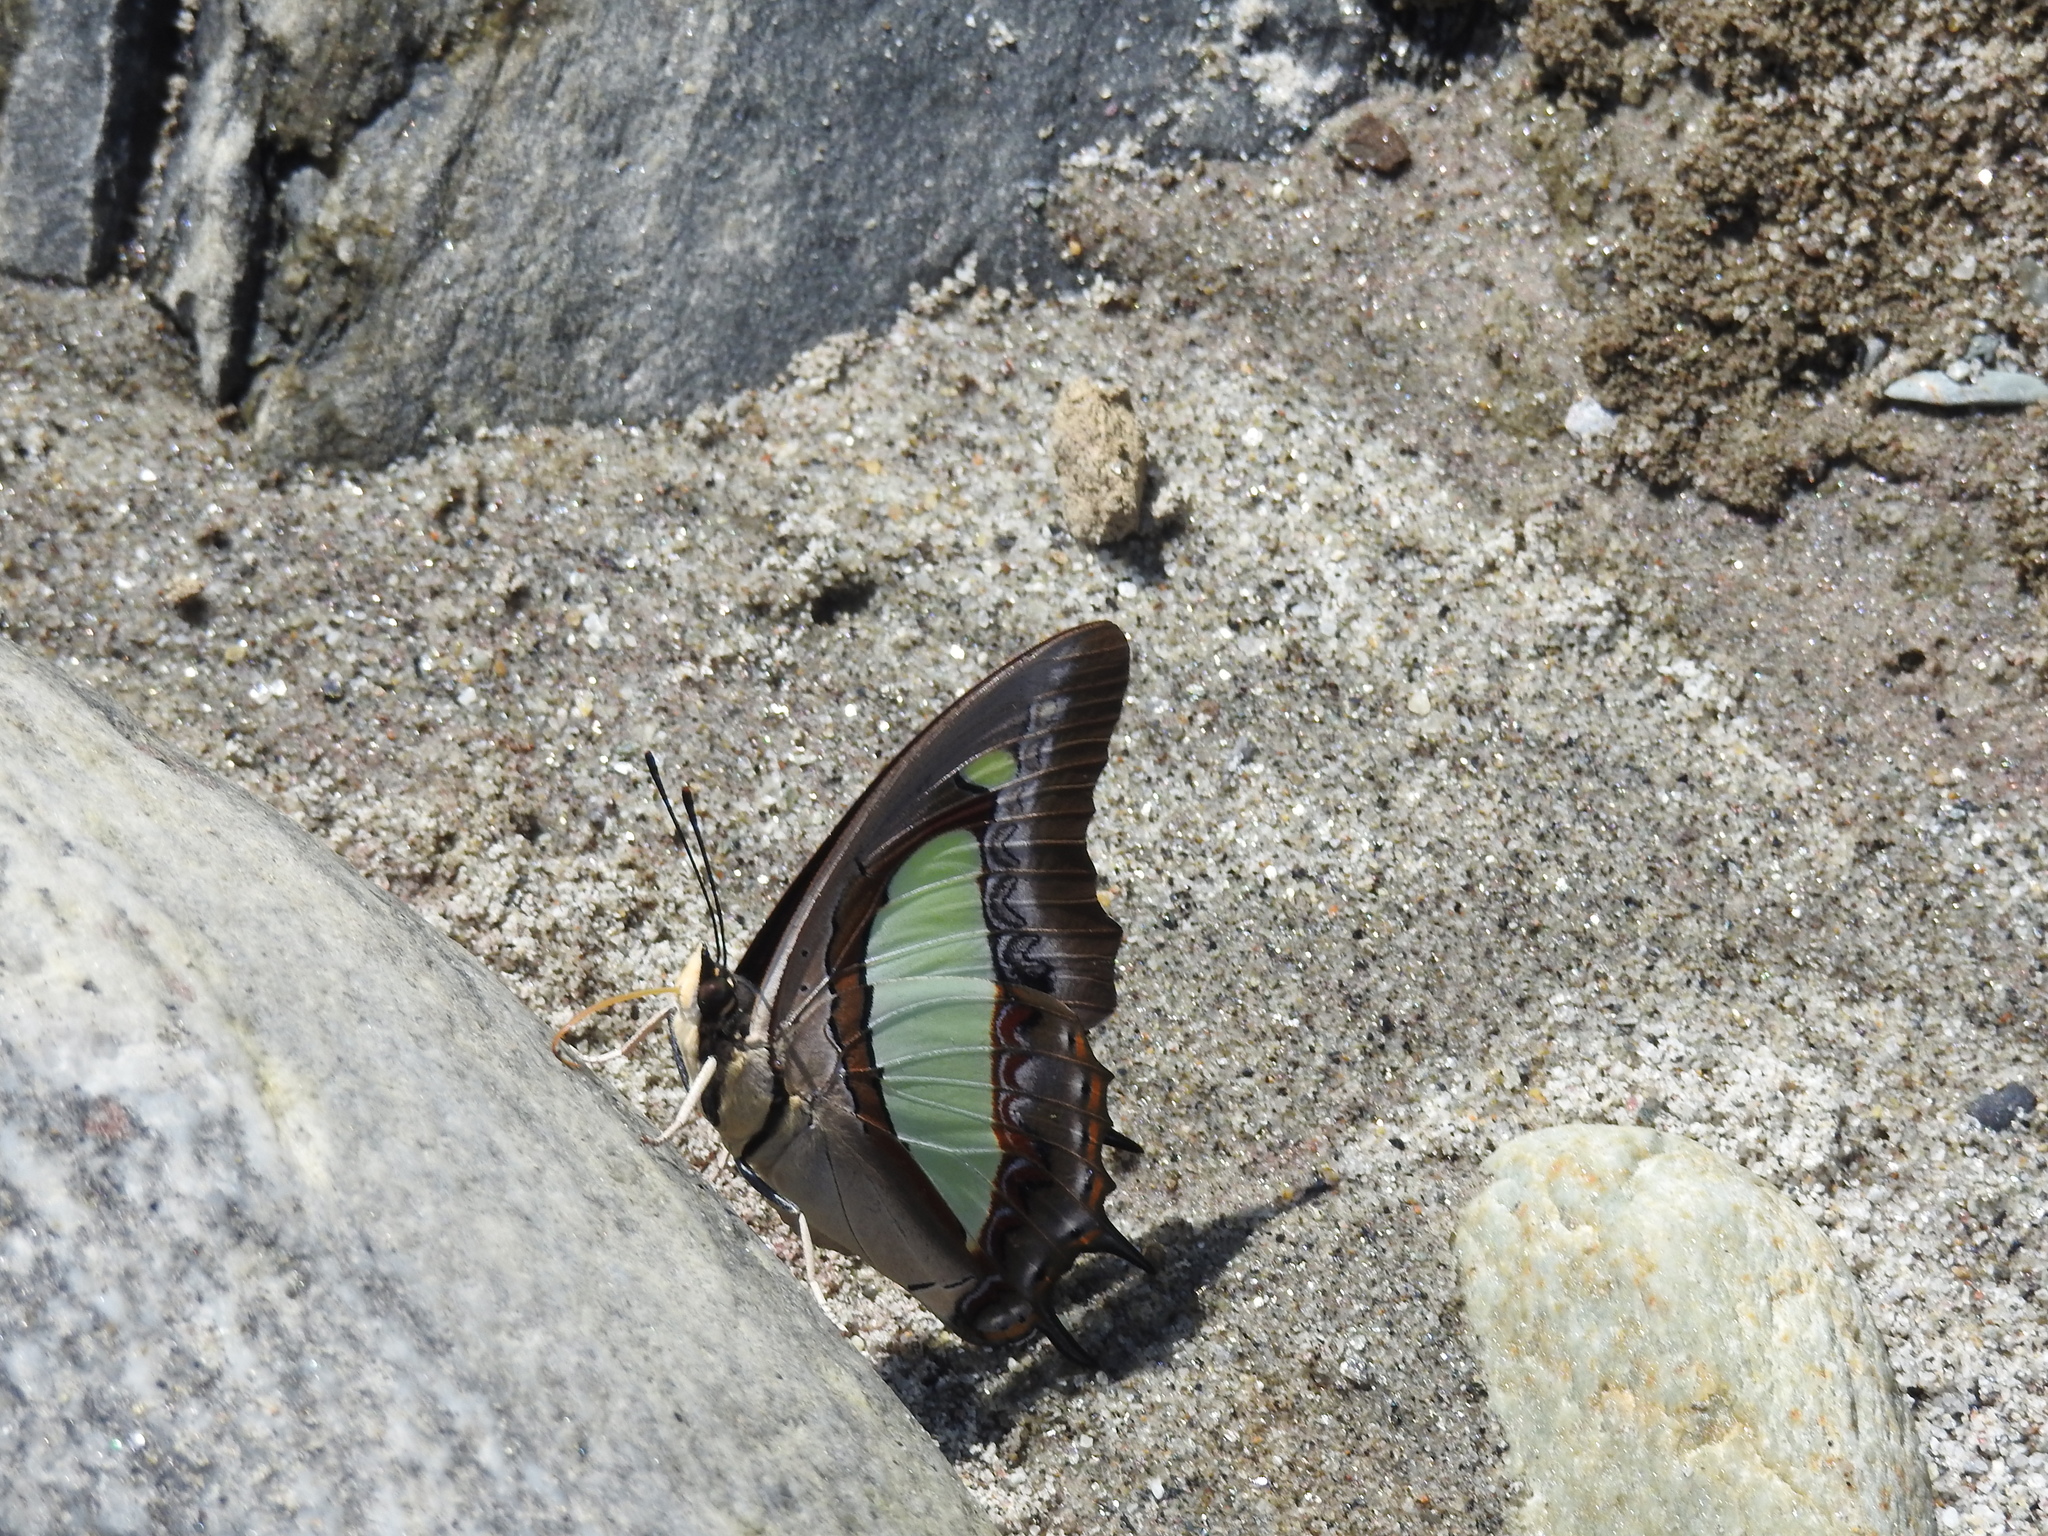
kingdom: Animalia
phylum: Arthropoda
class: Insecta
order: Lepidoptera
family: Nymphalidae
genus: Polyura
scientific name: Polyura
